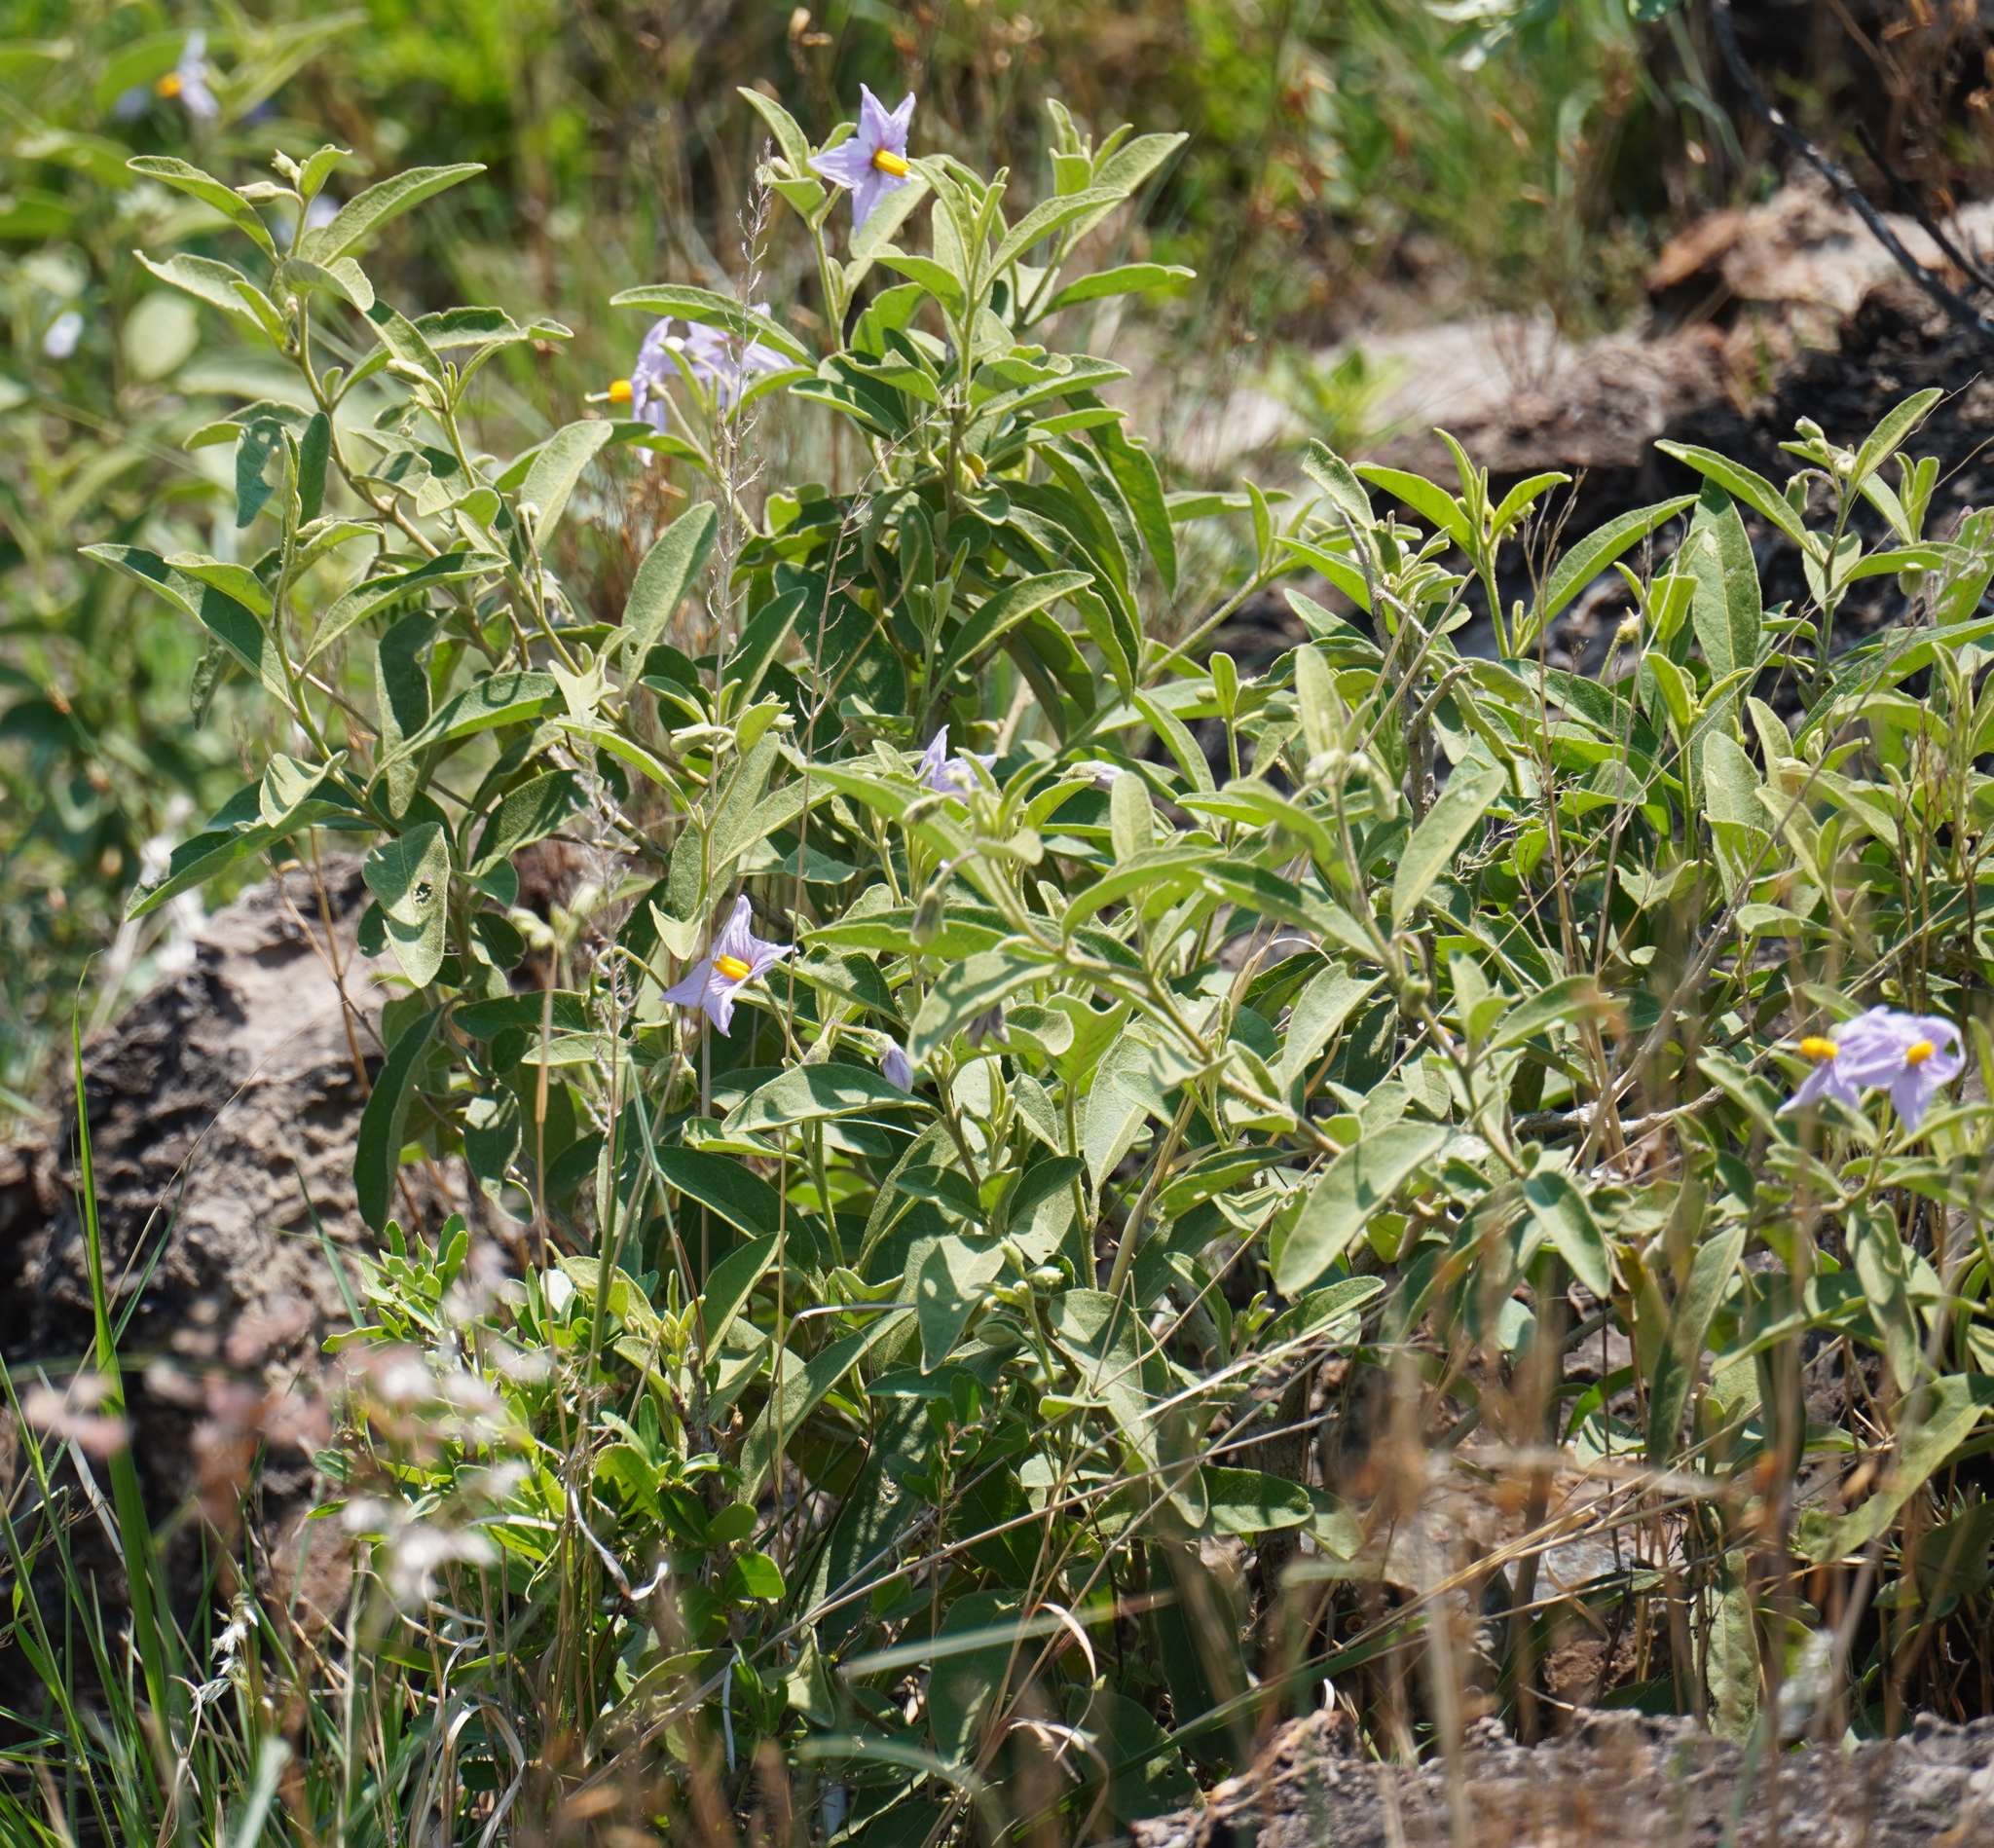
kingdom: Plantae
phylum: Tracheophyta
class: Magnoliopsida
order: Solanales
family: Solanaceae
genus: Solanum
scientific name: Solanum campylacanthum
